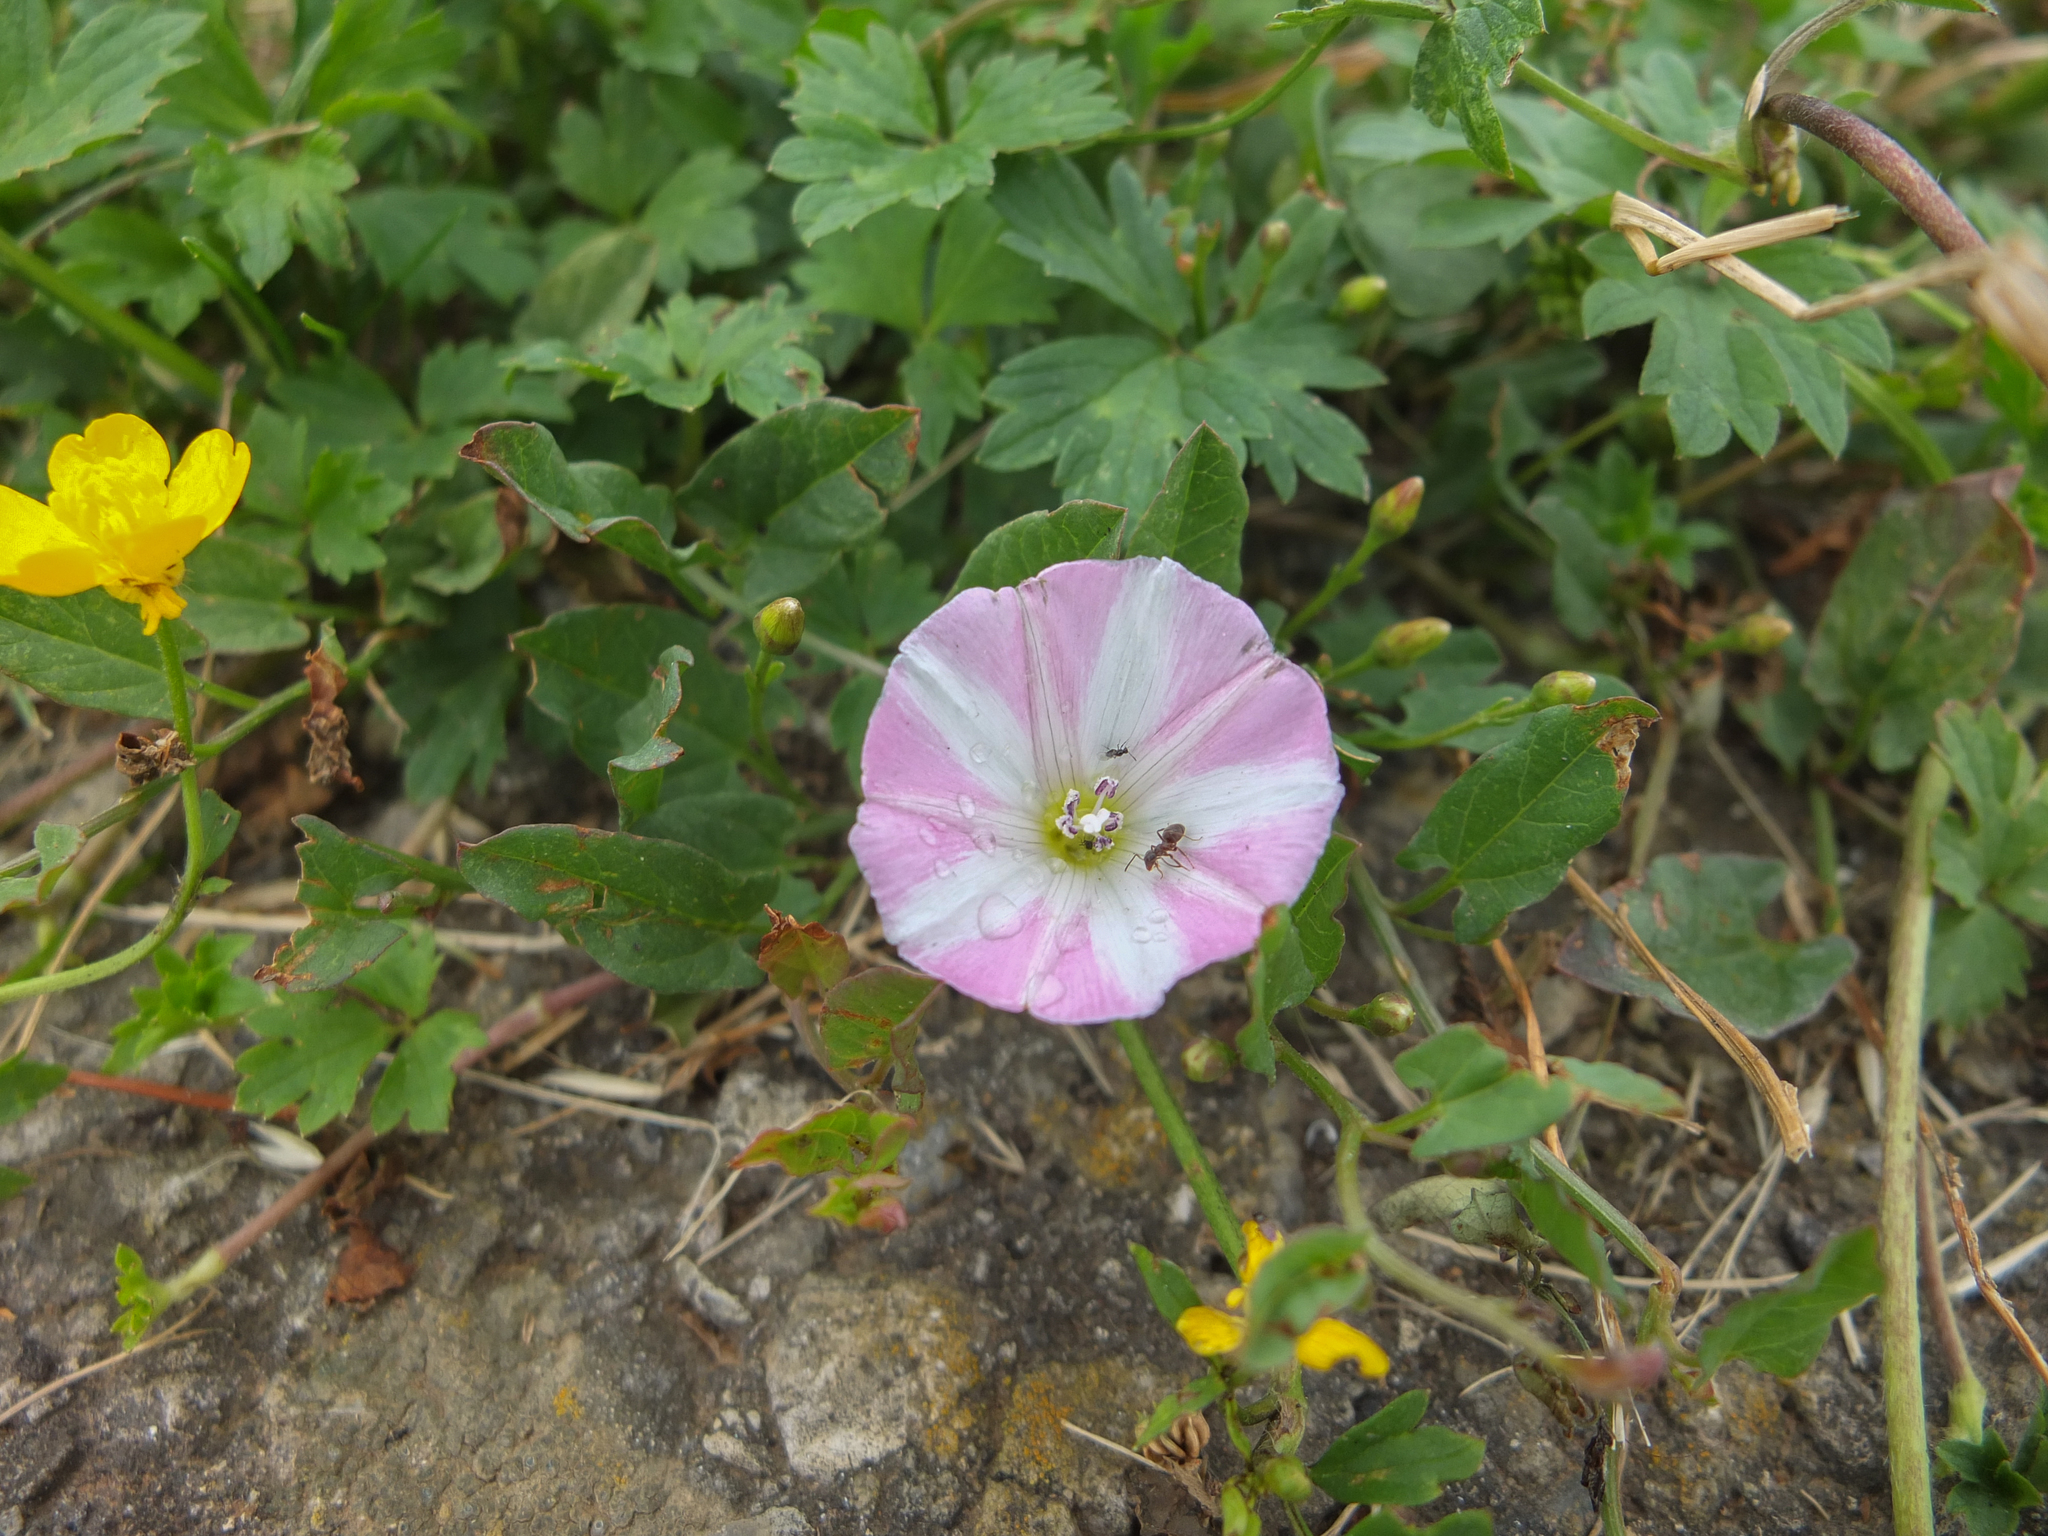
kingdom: Plantae
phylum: Tracheophyta
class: Magnoliopsida
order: Solanales
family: Convolvulaceae
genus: Convolvulus
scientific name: Convolvulus arvensis
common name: Field bindweed
